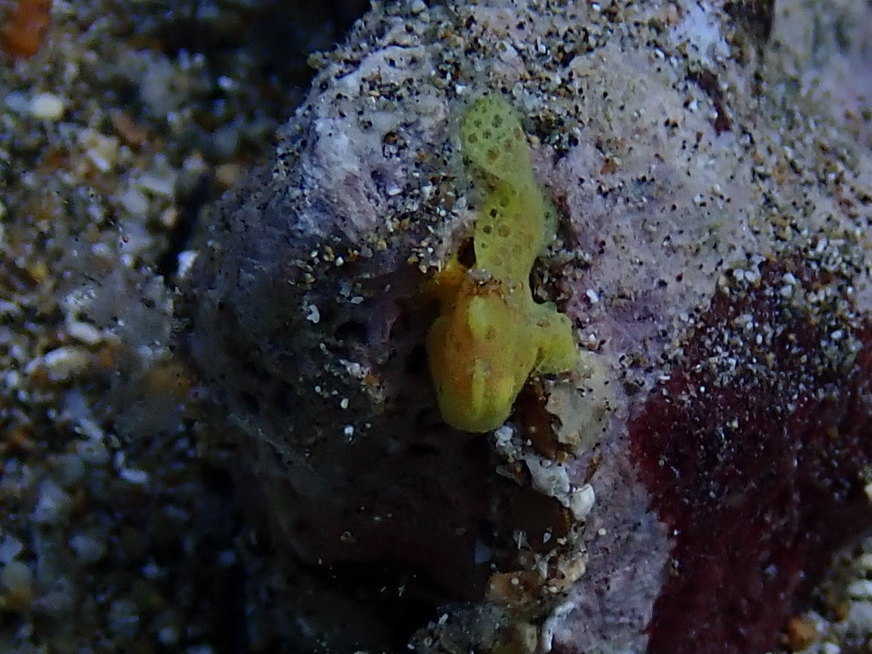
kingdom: Animalia
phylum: Chordata
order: Lophiiformes
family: Antennariidae
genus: Antennarius
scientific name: Antennarius commerson
